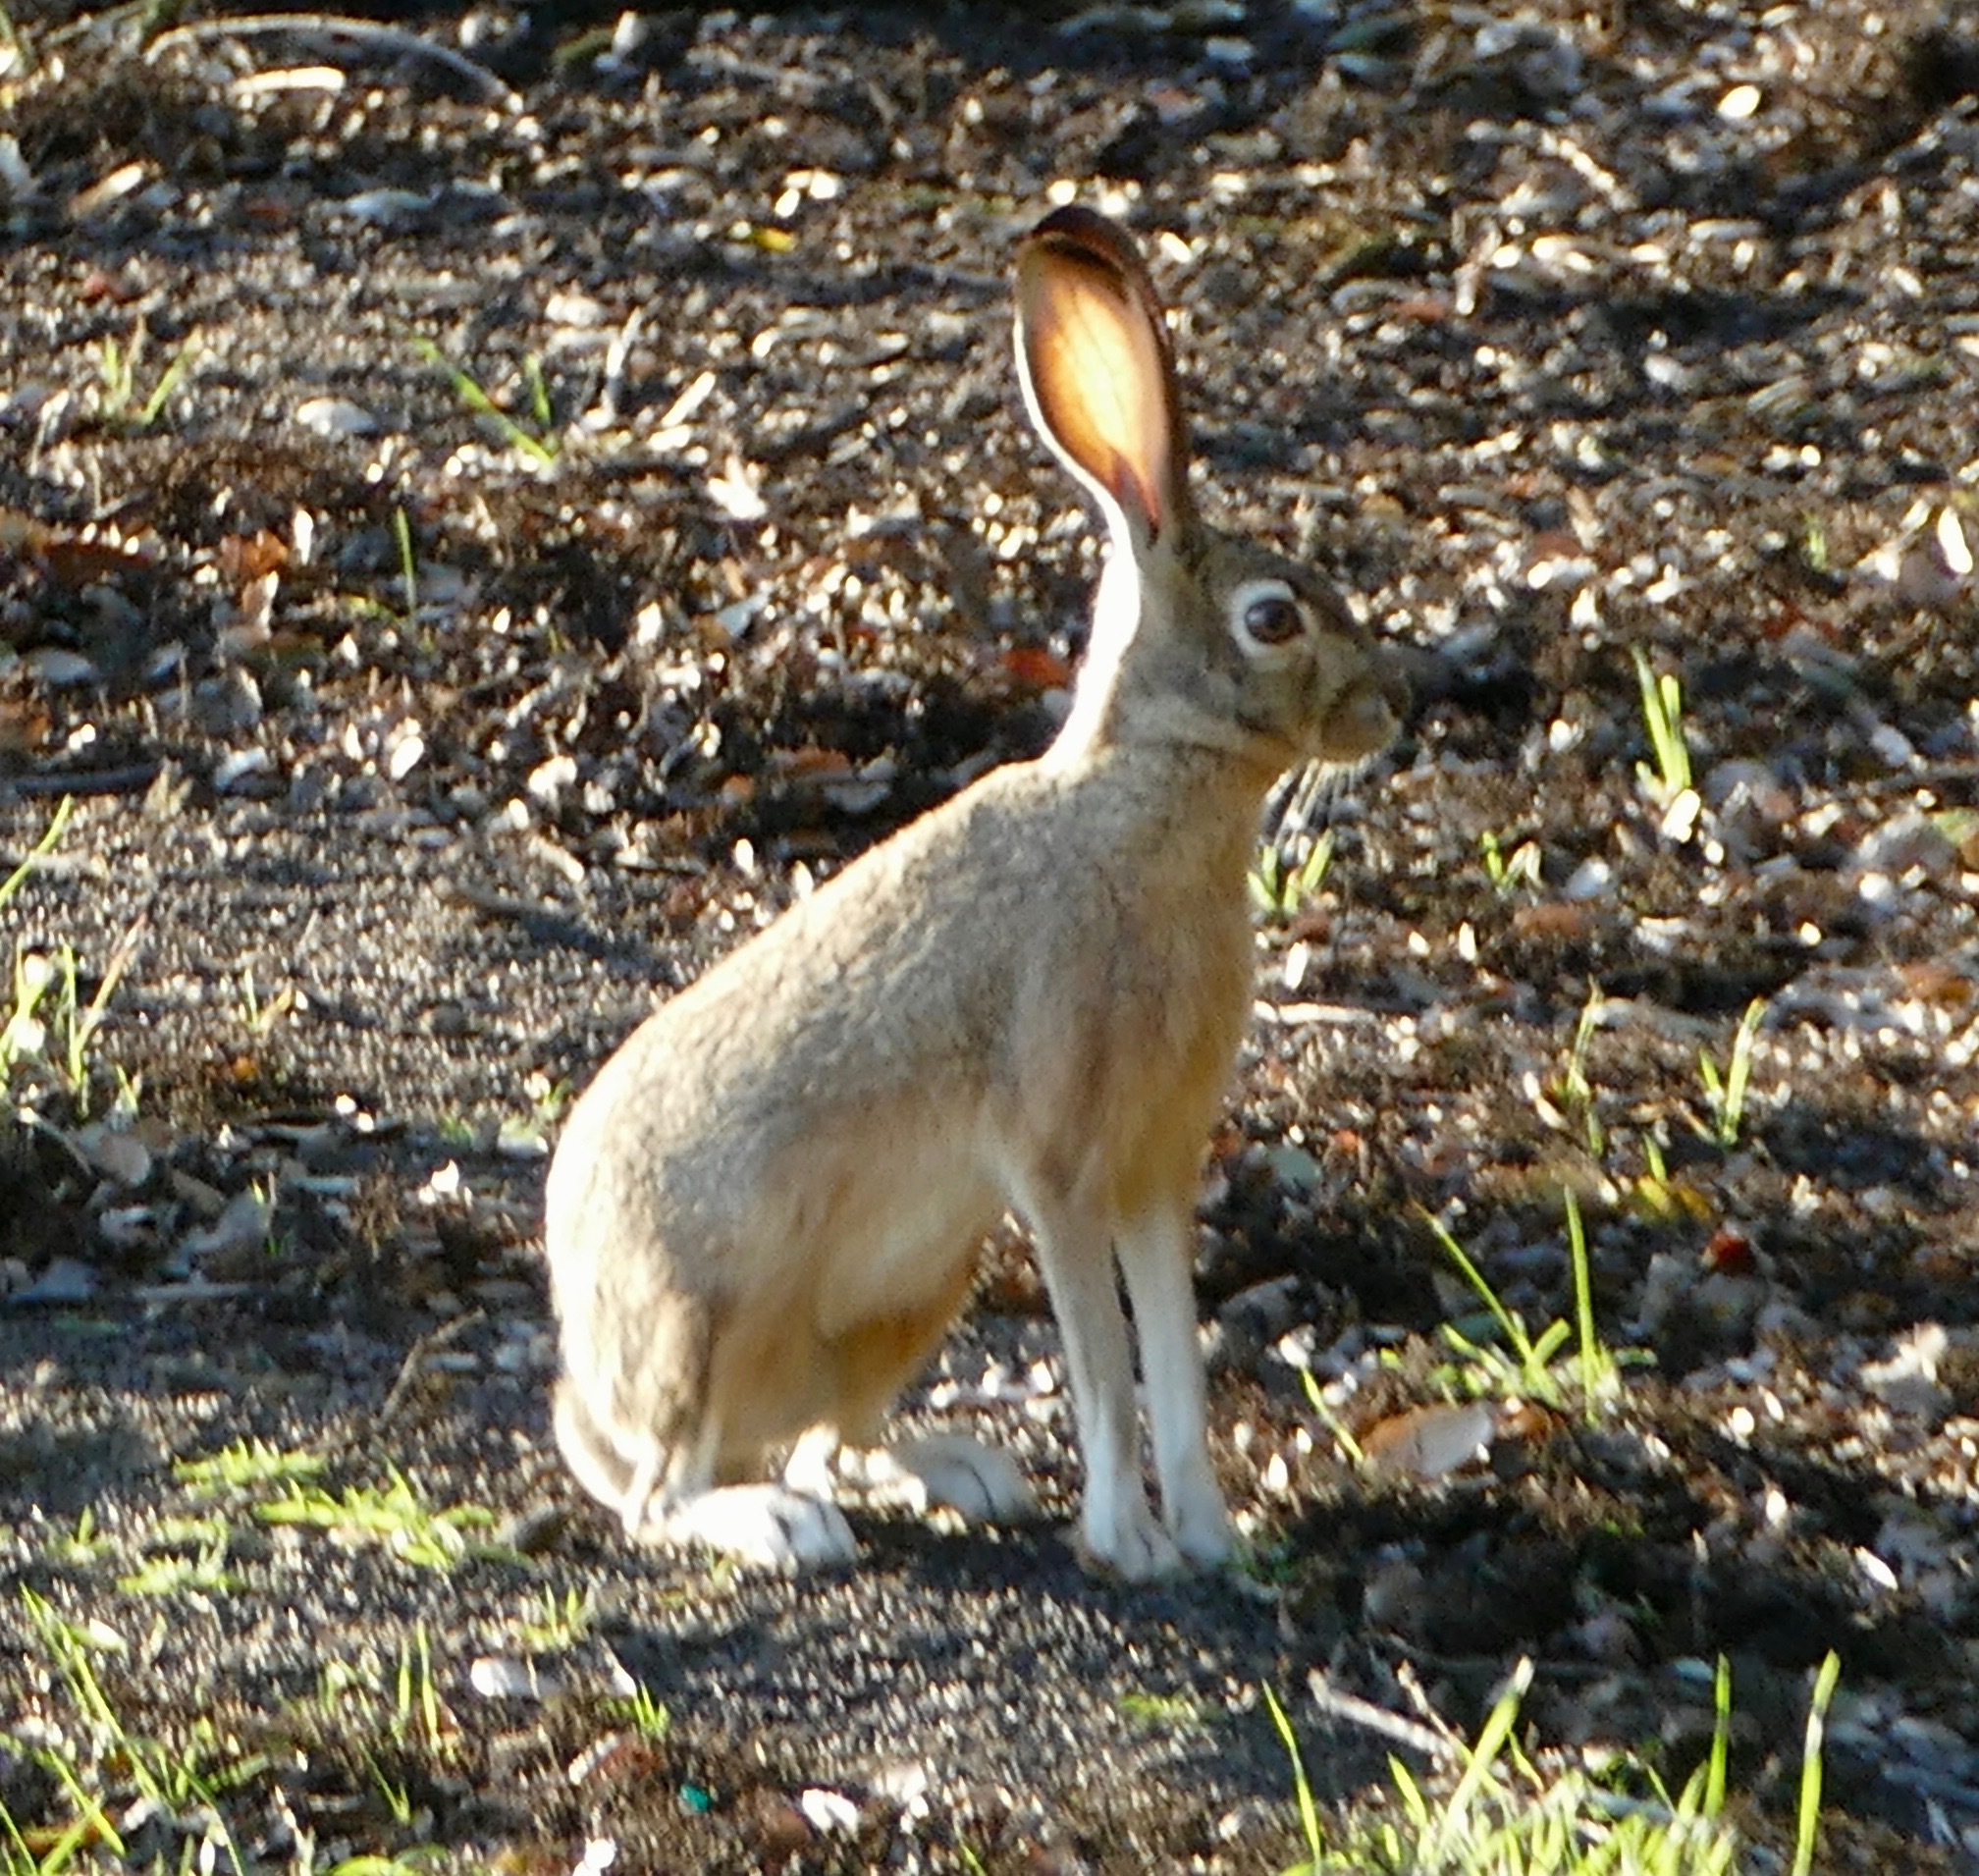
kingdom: Animalia
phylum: Chordata
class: Mammalia
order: Lagomorpha
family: Leporidae
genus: Lepus
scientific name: Lepus californicus
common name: Black-tailed jackrabbit
